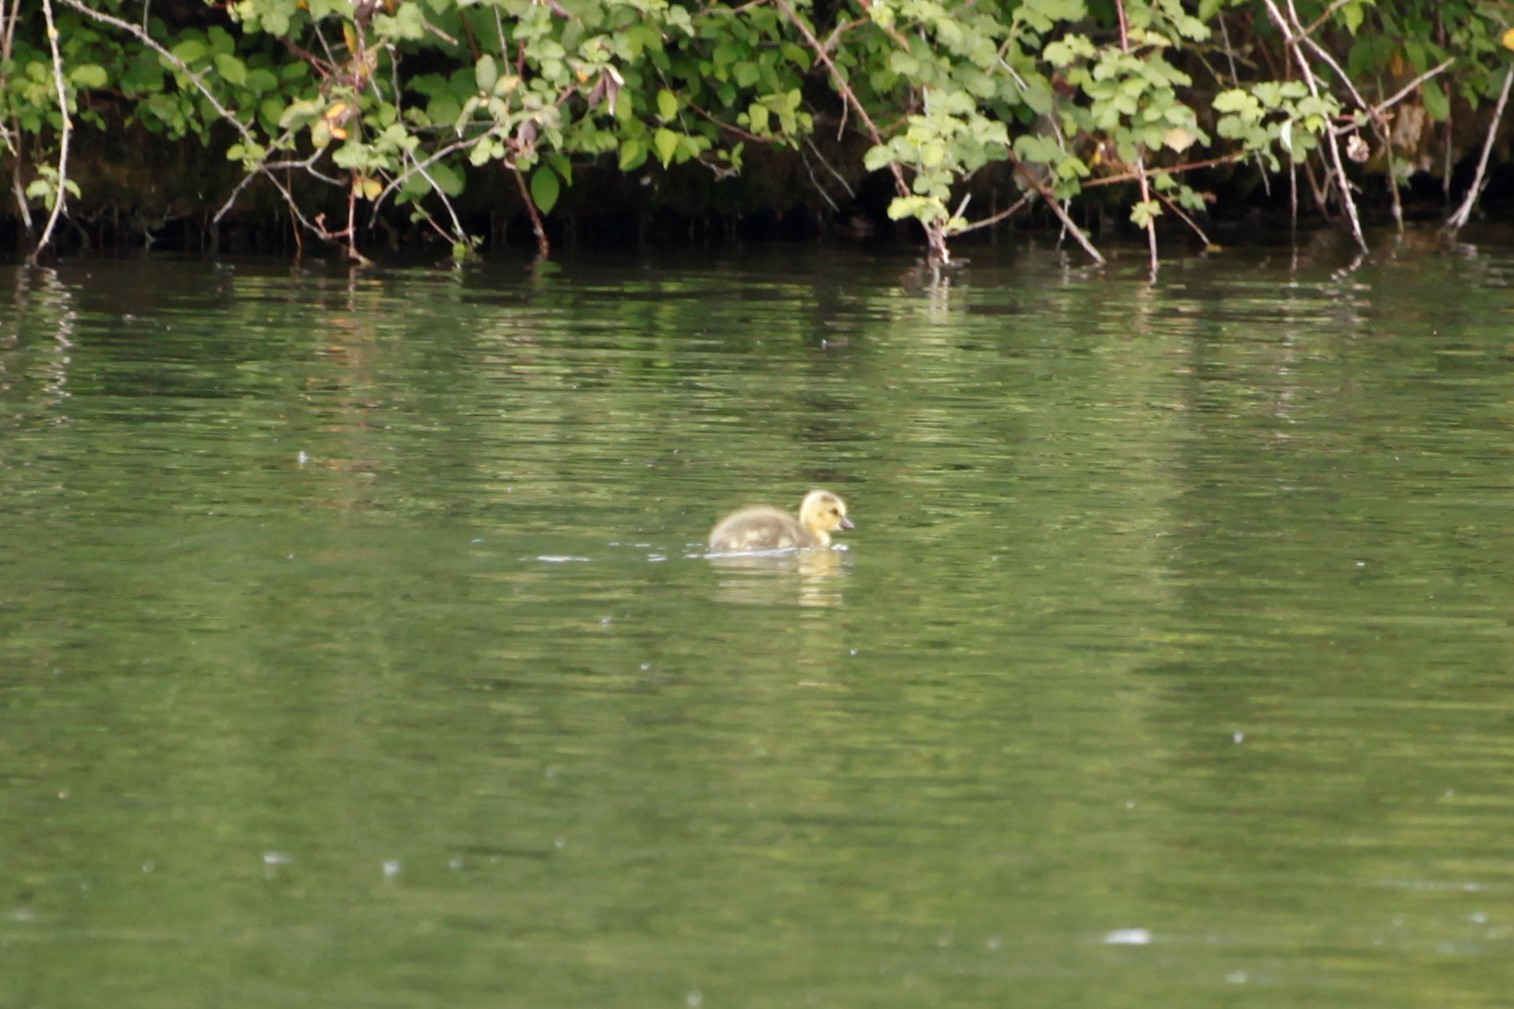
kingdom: Animalia
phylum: Chordata
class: Aves
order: Anseriformes
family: Anatidae
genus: Branta
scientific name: Branta canadensis
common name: Canada goose
